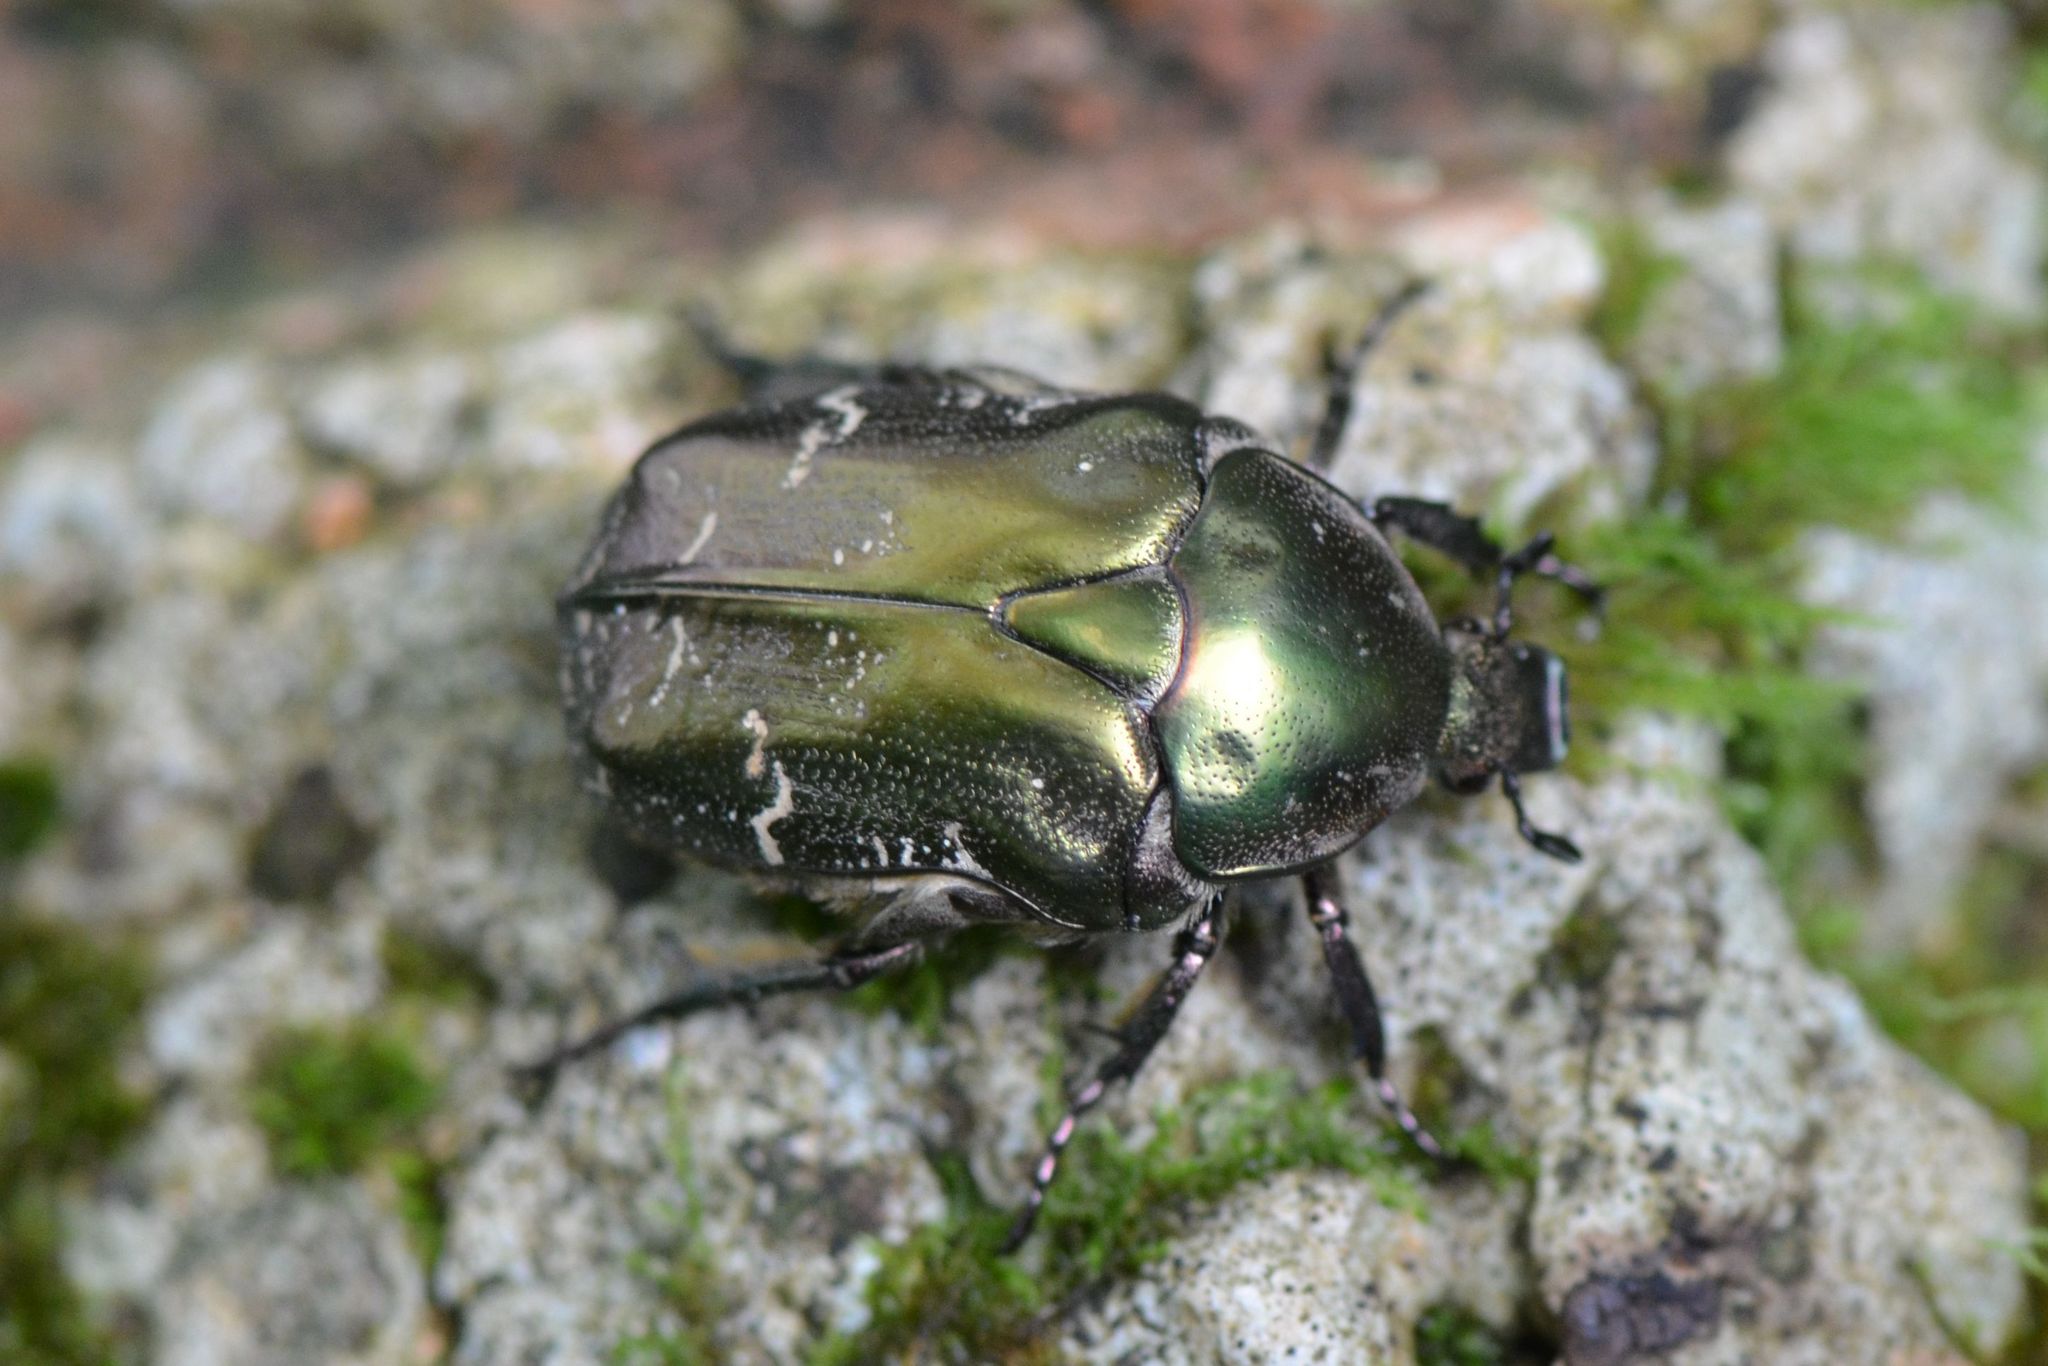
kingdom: Animalia
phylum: Arthropoda
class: Insecta
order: Coleoptera
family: Scarabaeidae
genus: Protaetia
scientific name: Protaetia cuprea
